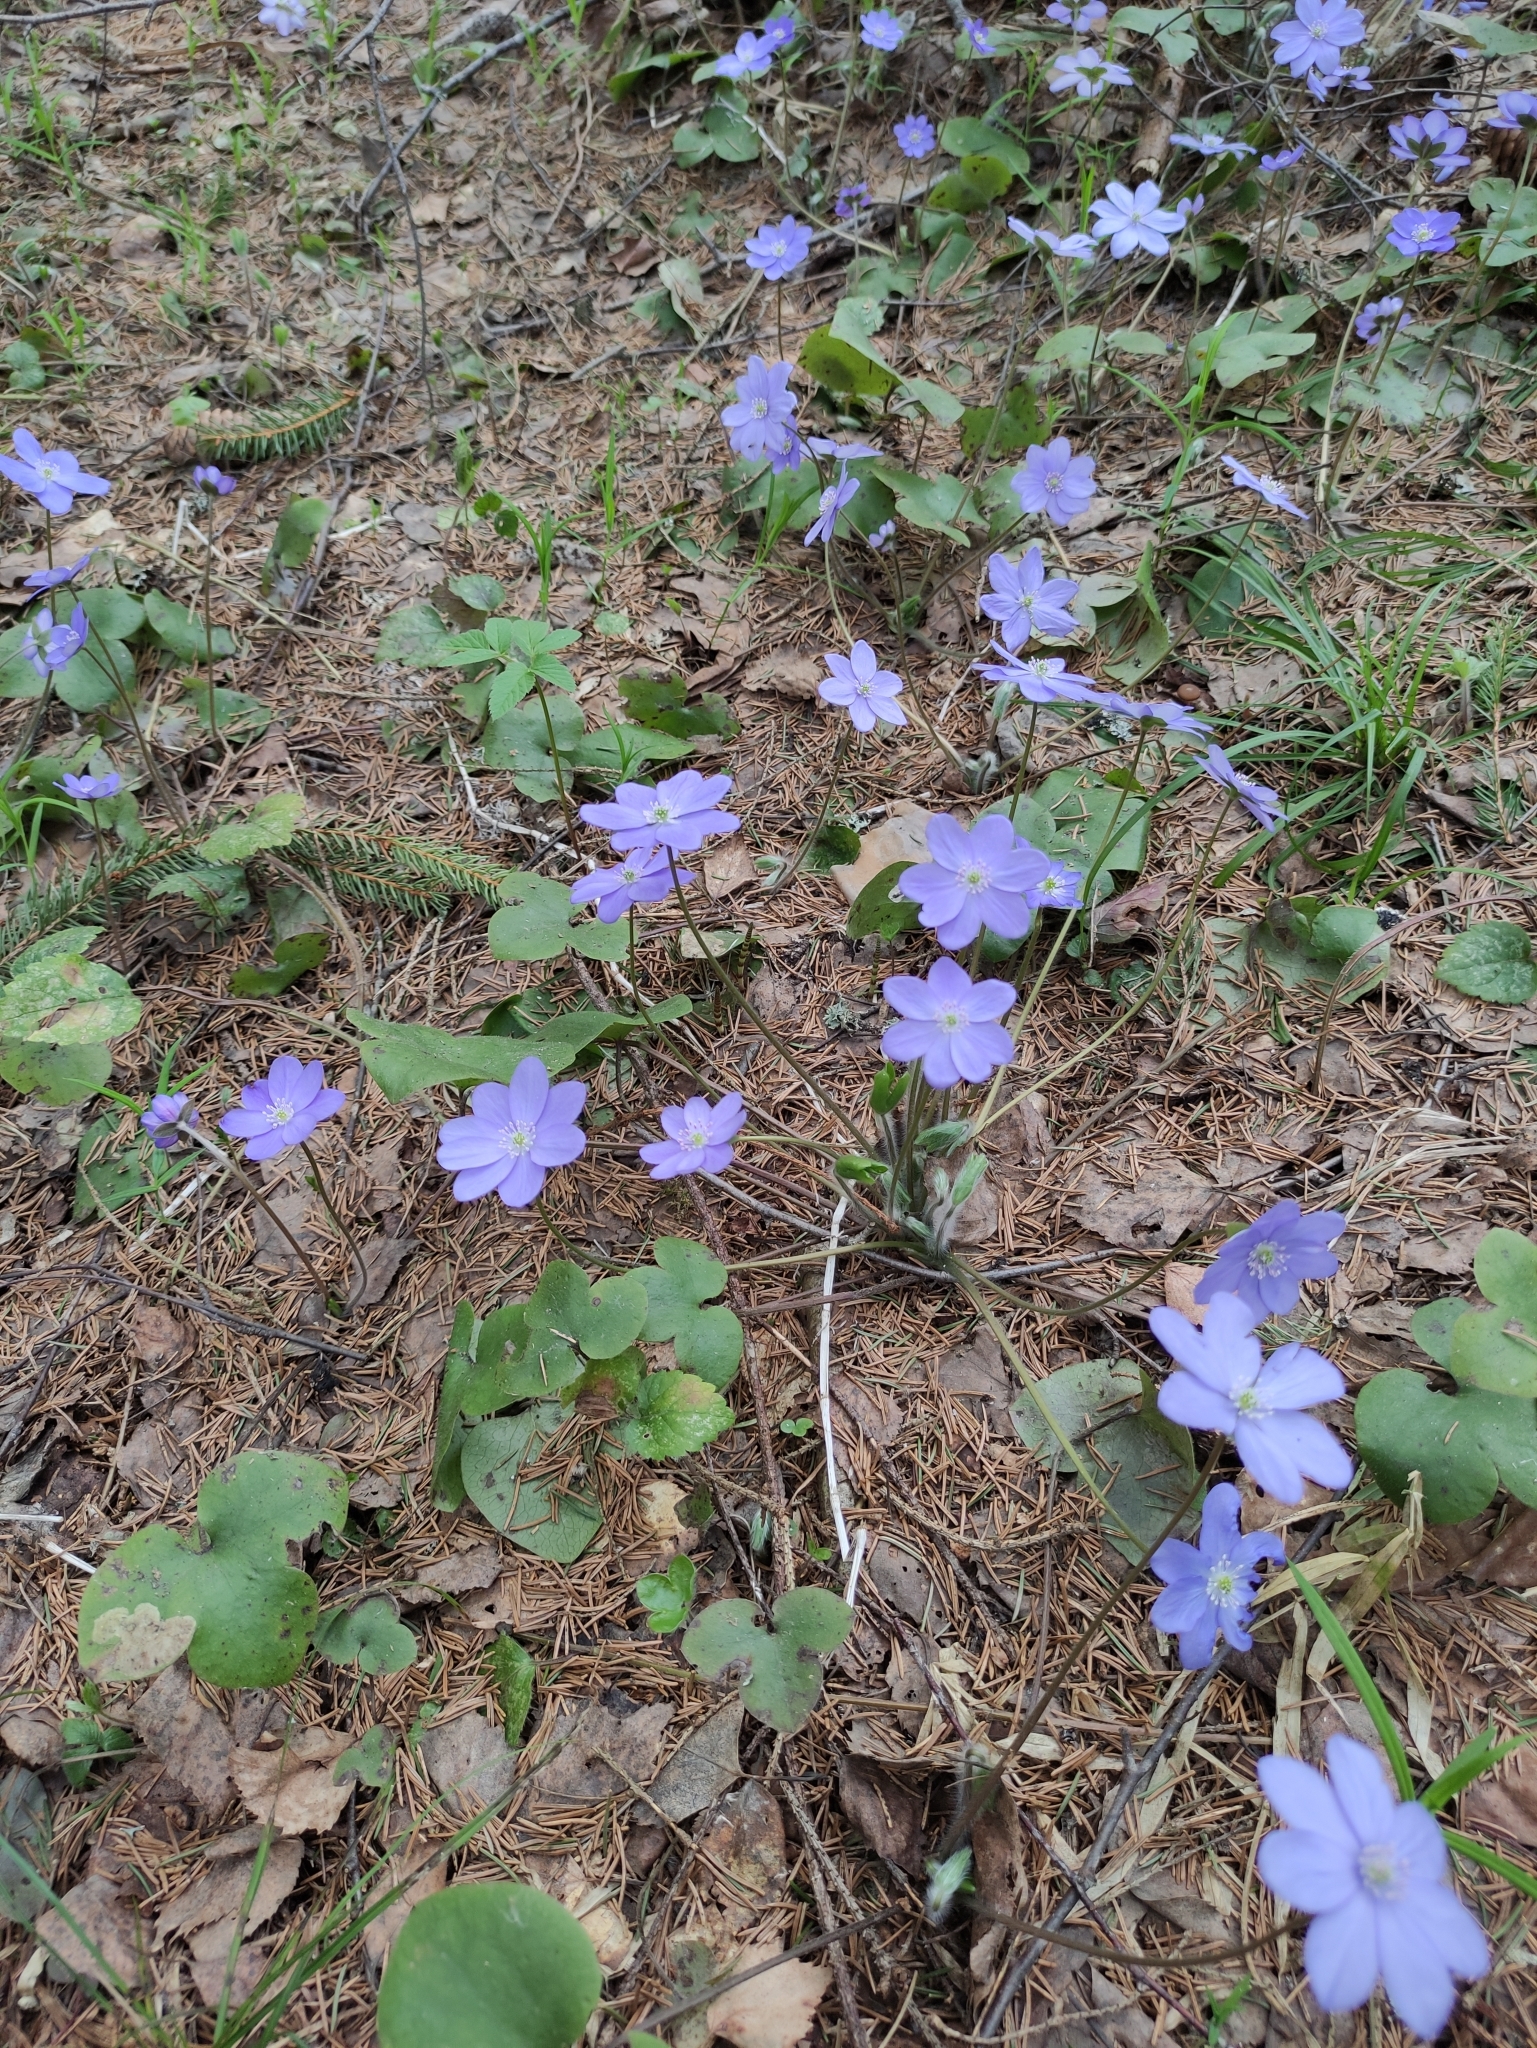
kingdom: Plantae
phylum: Tracheophyta
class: Magnoliopsida
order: Ranunculales
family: Ranunculaceae
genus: Hepatica
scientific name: Hepatica nobilis
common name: Liverleaf
